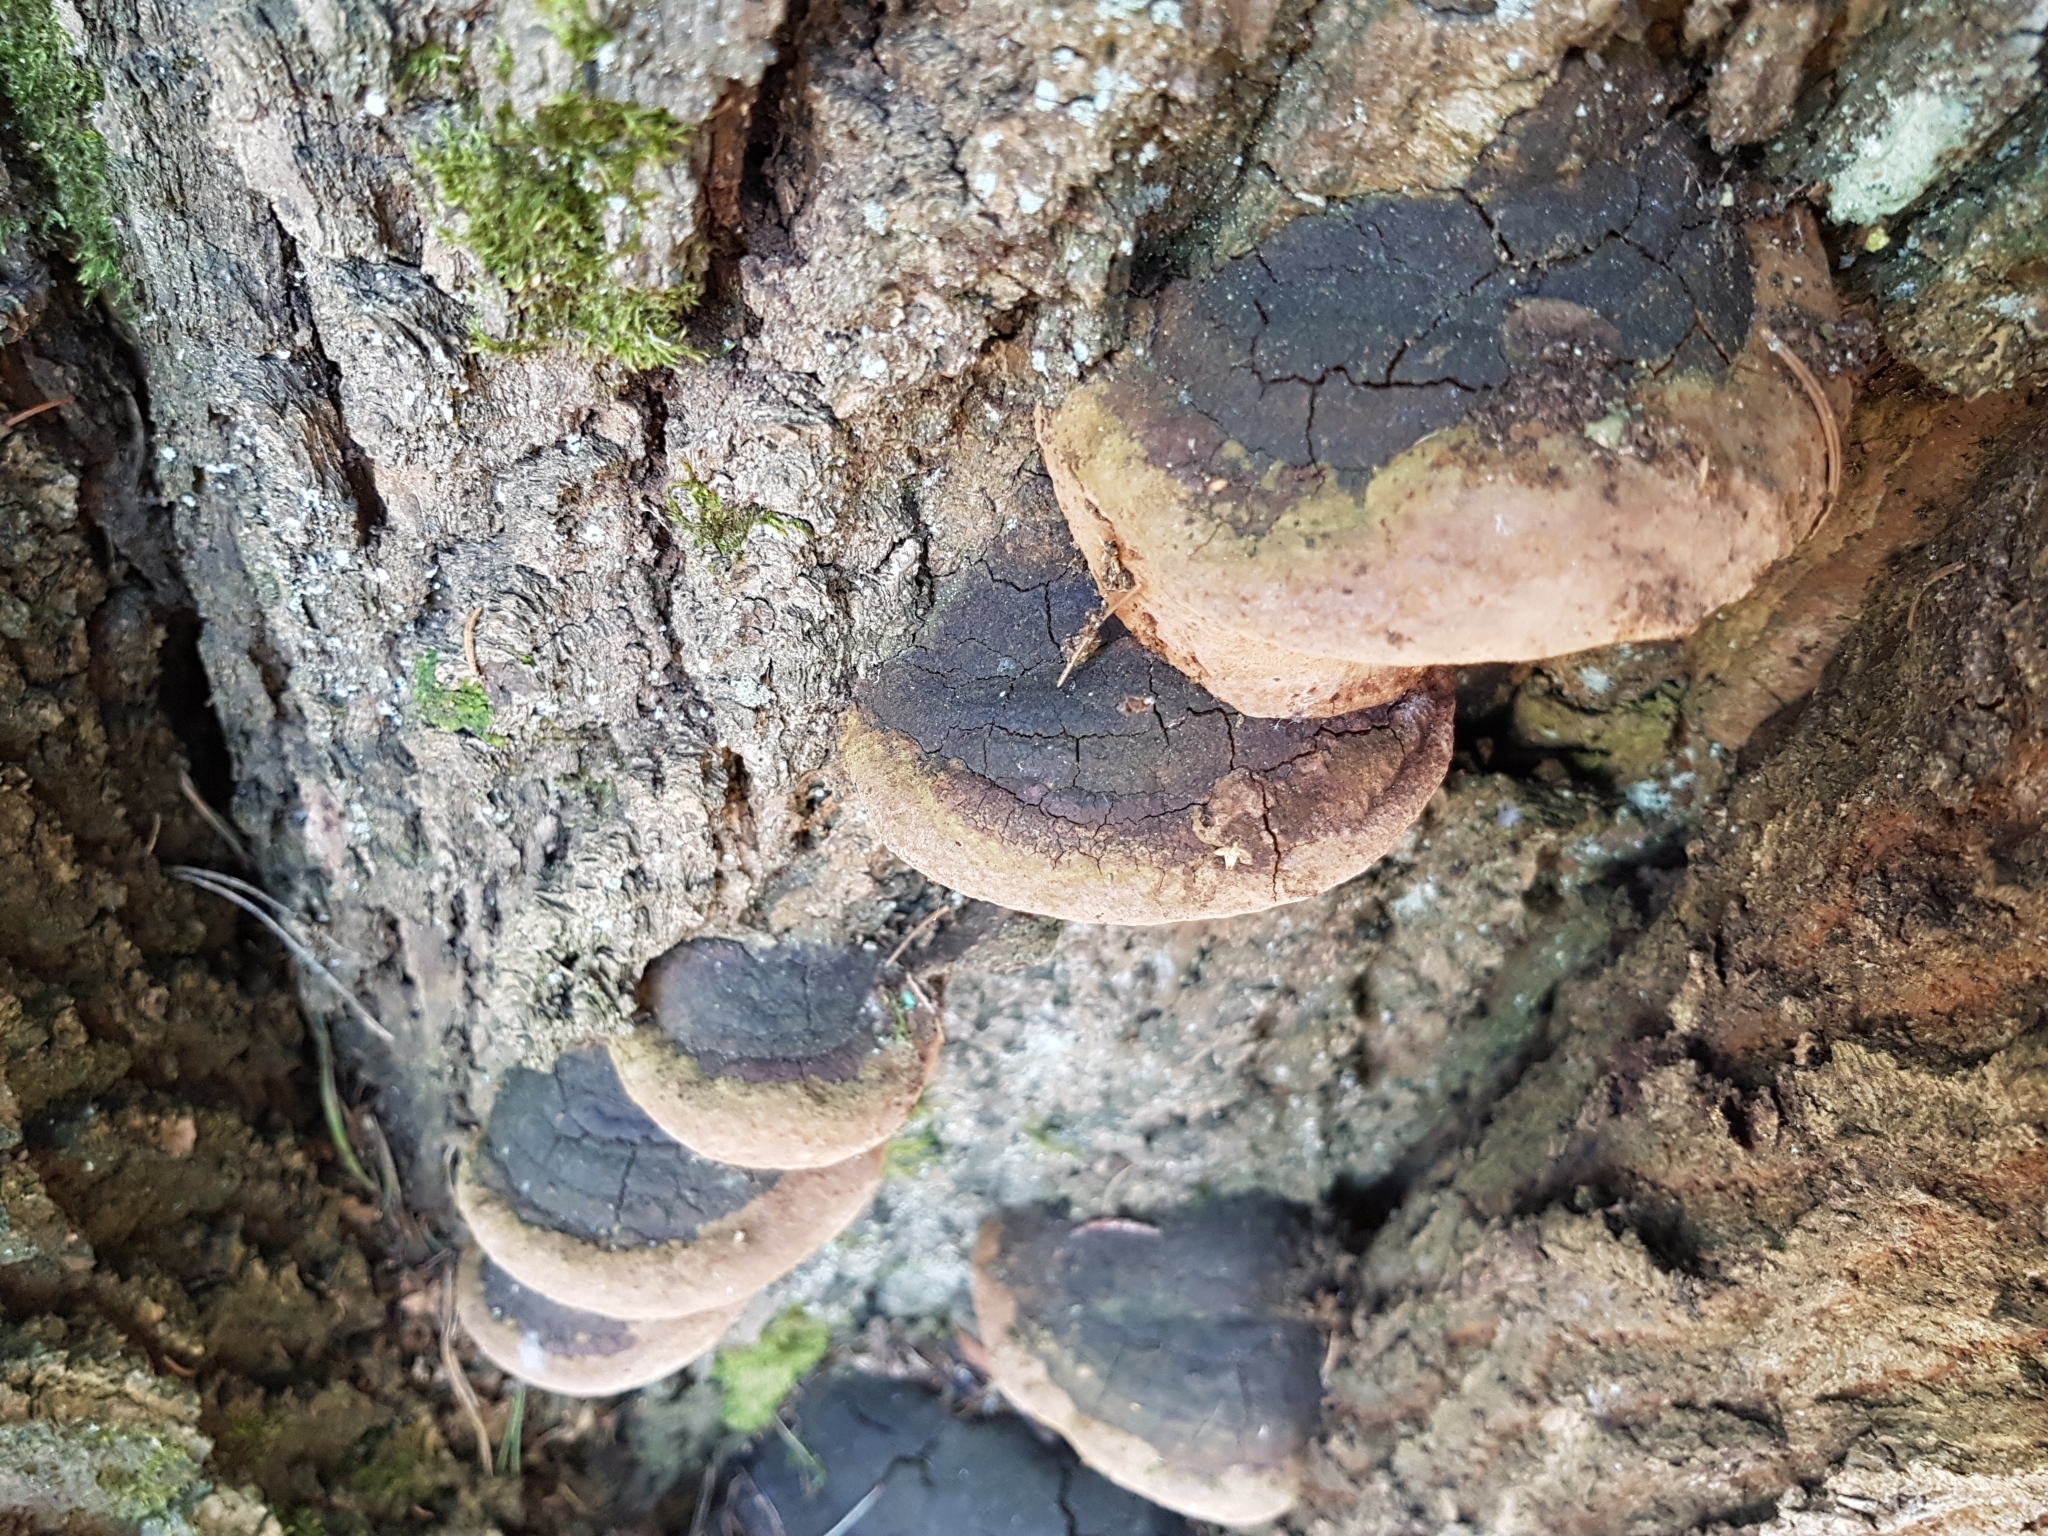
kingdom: Fungi
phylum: Basidiomycota
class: Agaricomycetes
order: Hymenochaetales
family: Hymenochaetaceae
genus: Fomitiporia
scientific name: Fomitiporia robusta
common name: Robust bracket
